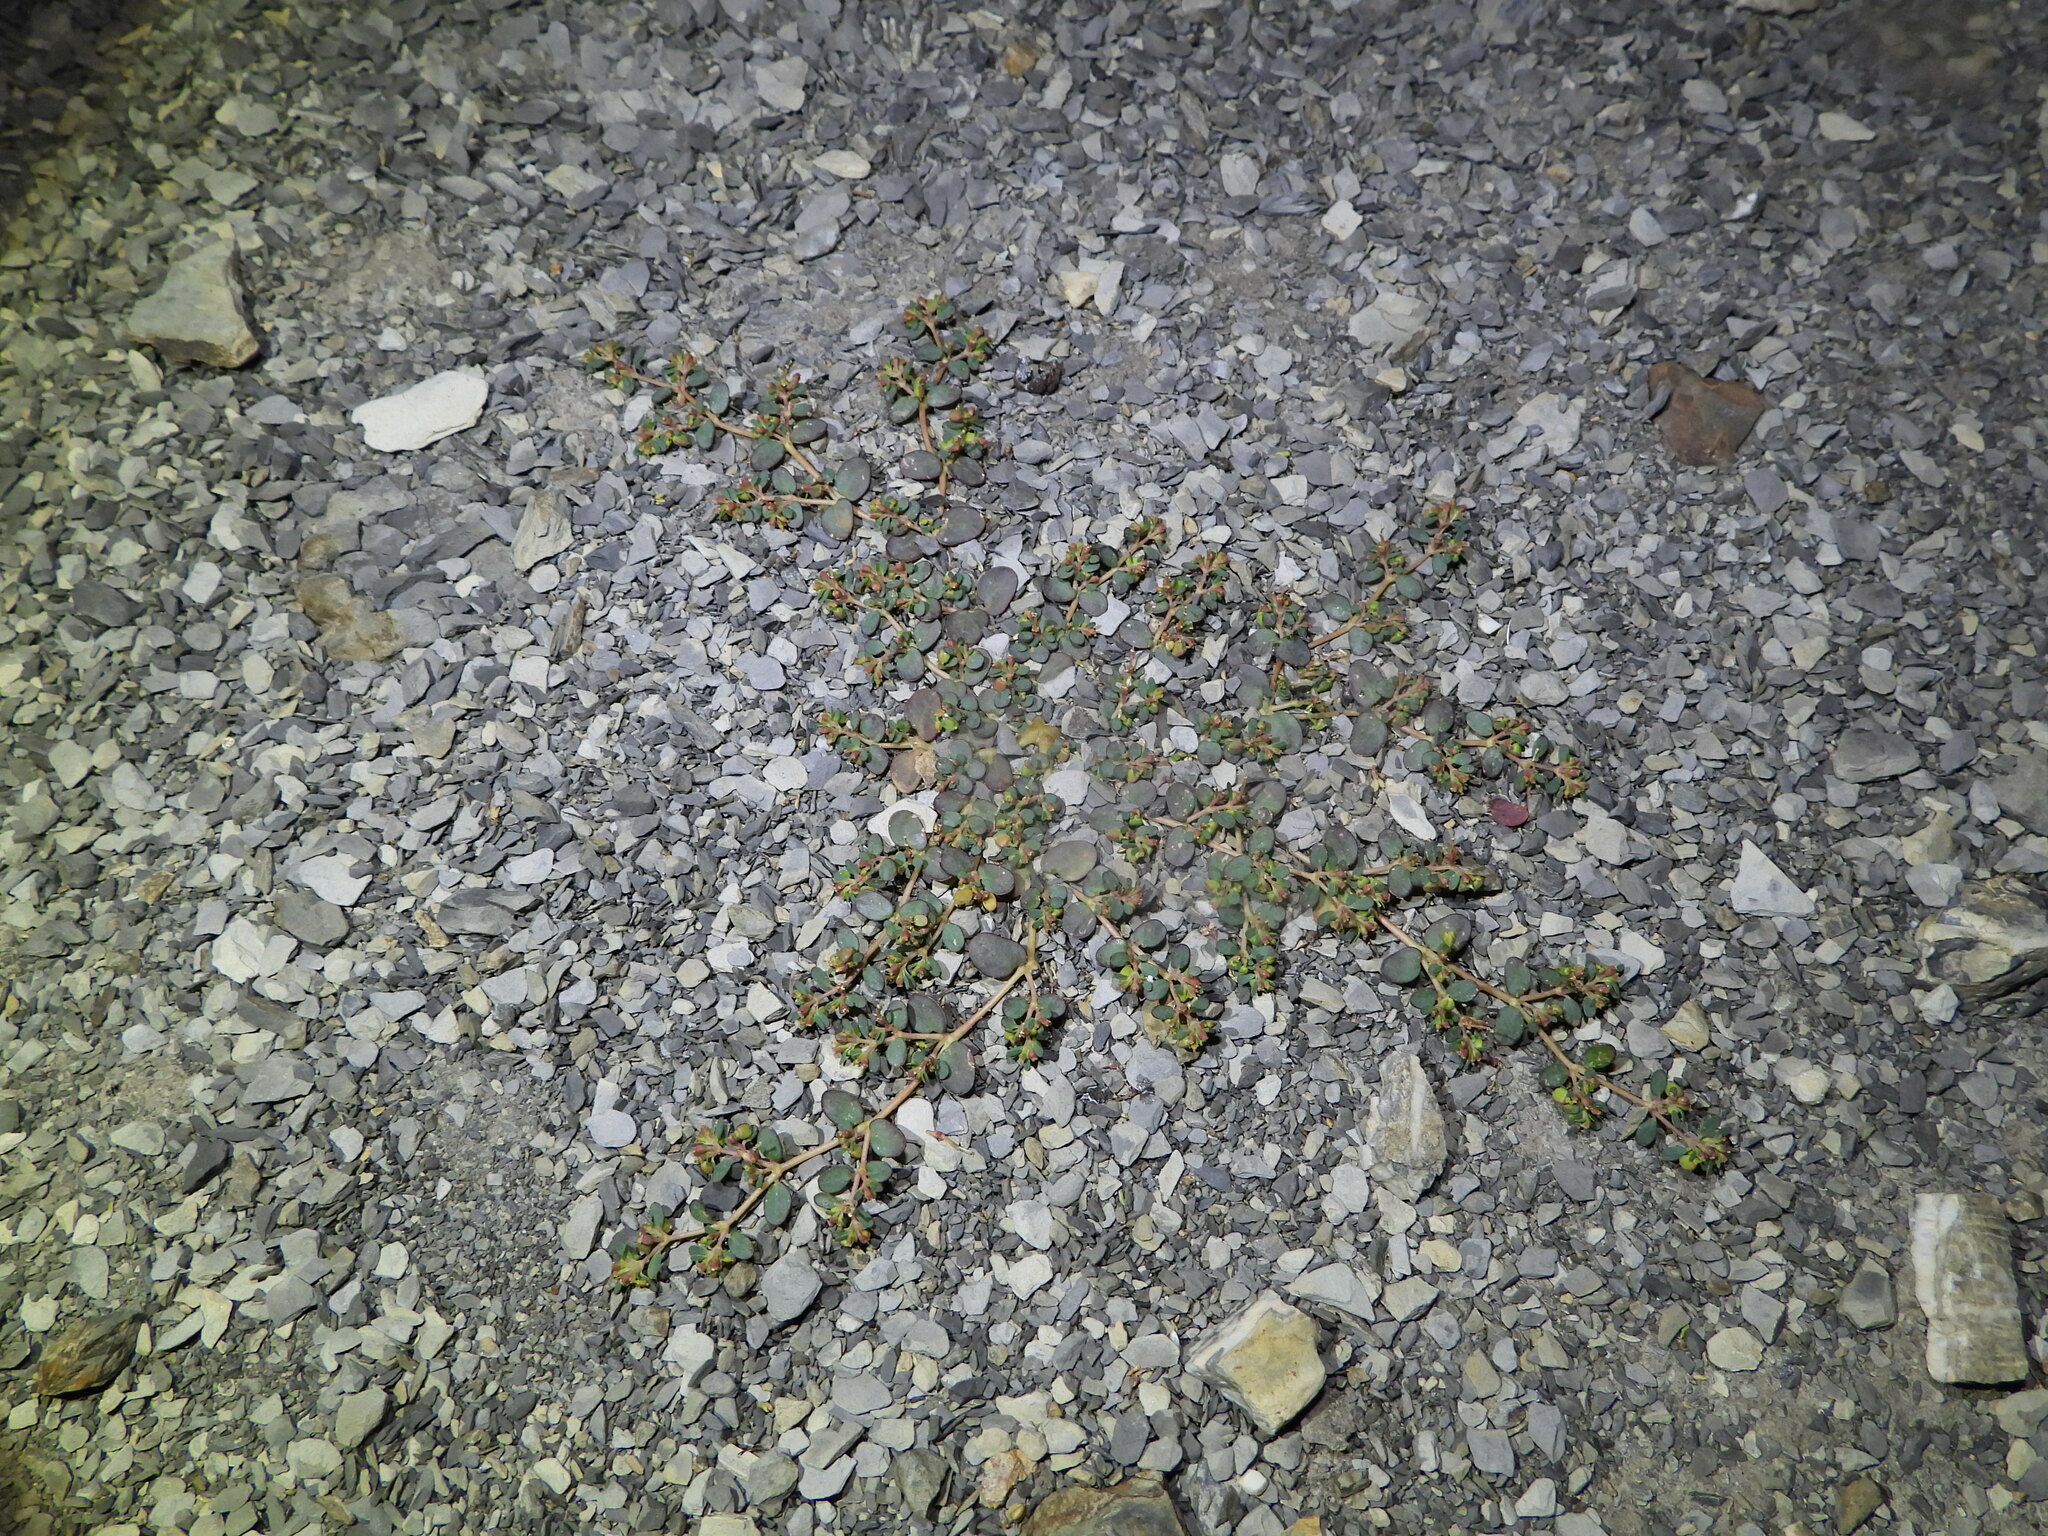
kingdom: Plantae
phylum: Tracheophyta
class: Magnoliopsida
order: Malpighiales
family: Euphorbiaceae
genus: Euphorbia
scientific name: Euphorbia cryptorubra
